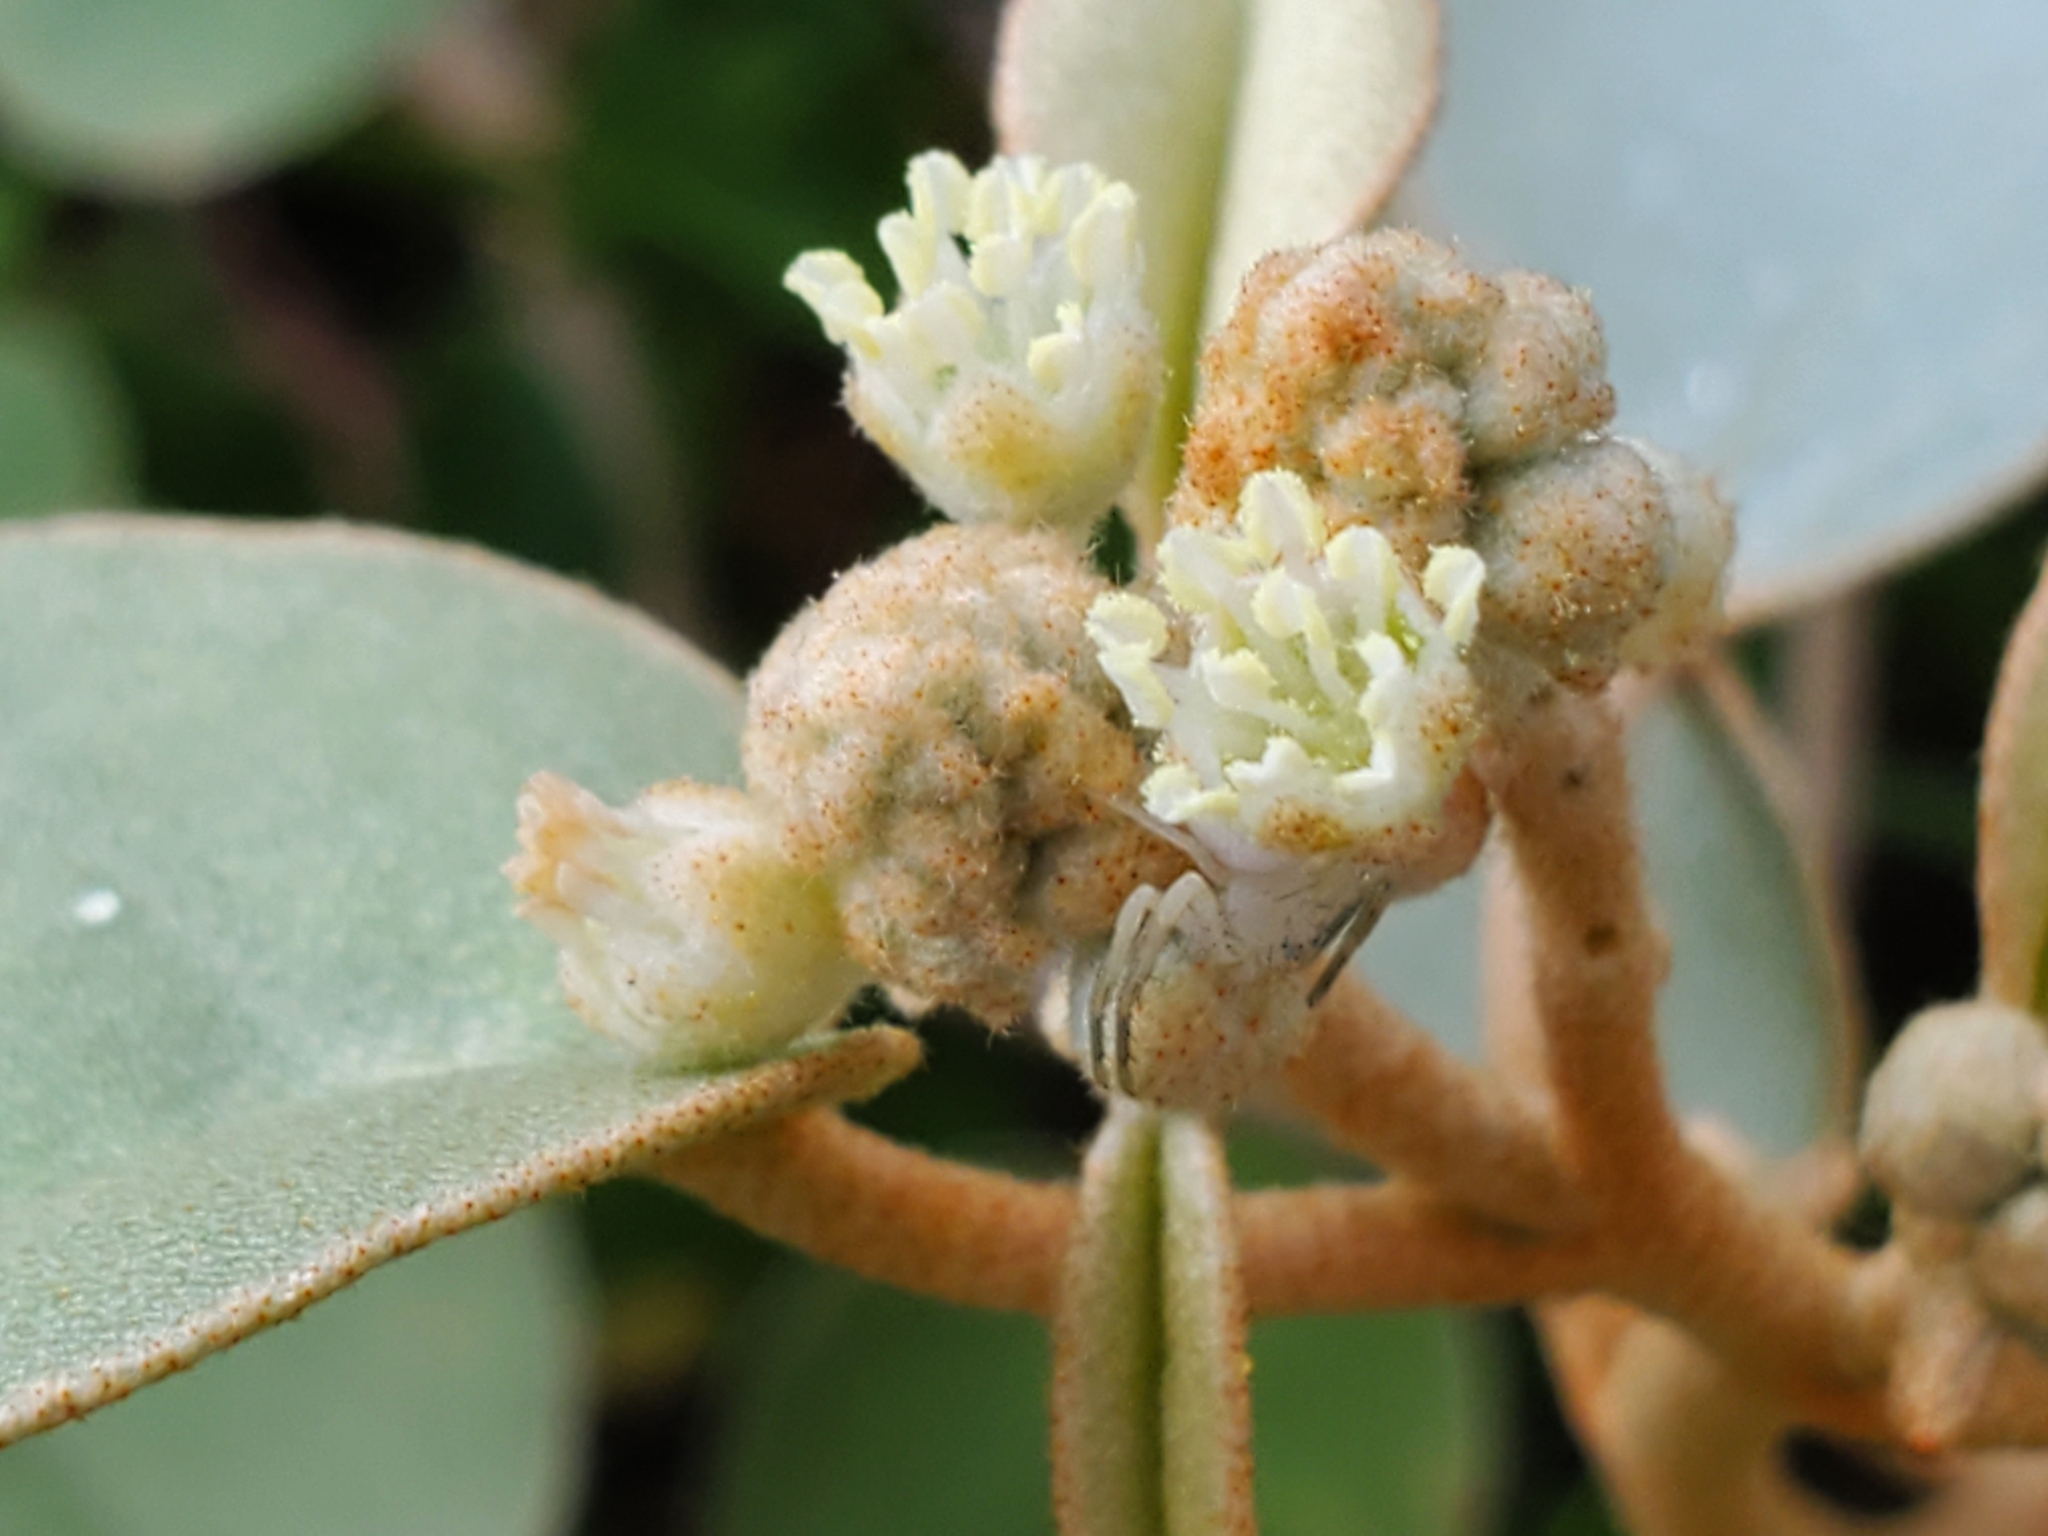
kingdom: Plantae
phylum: Tracheophyta
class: Magnoliopsida
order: Malpighiales
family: Euphorbiaceae
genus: Croton
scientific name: Croton punctatus
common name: Beach-tea
